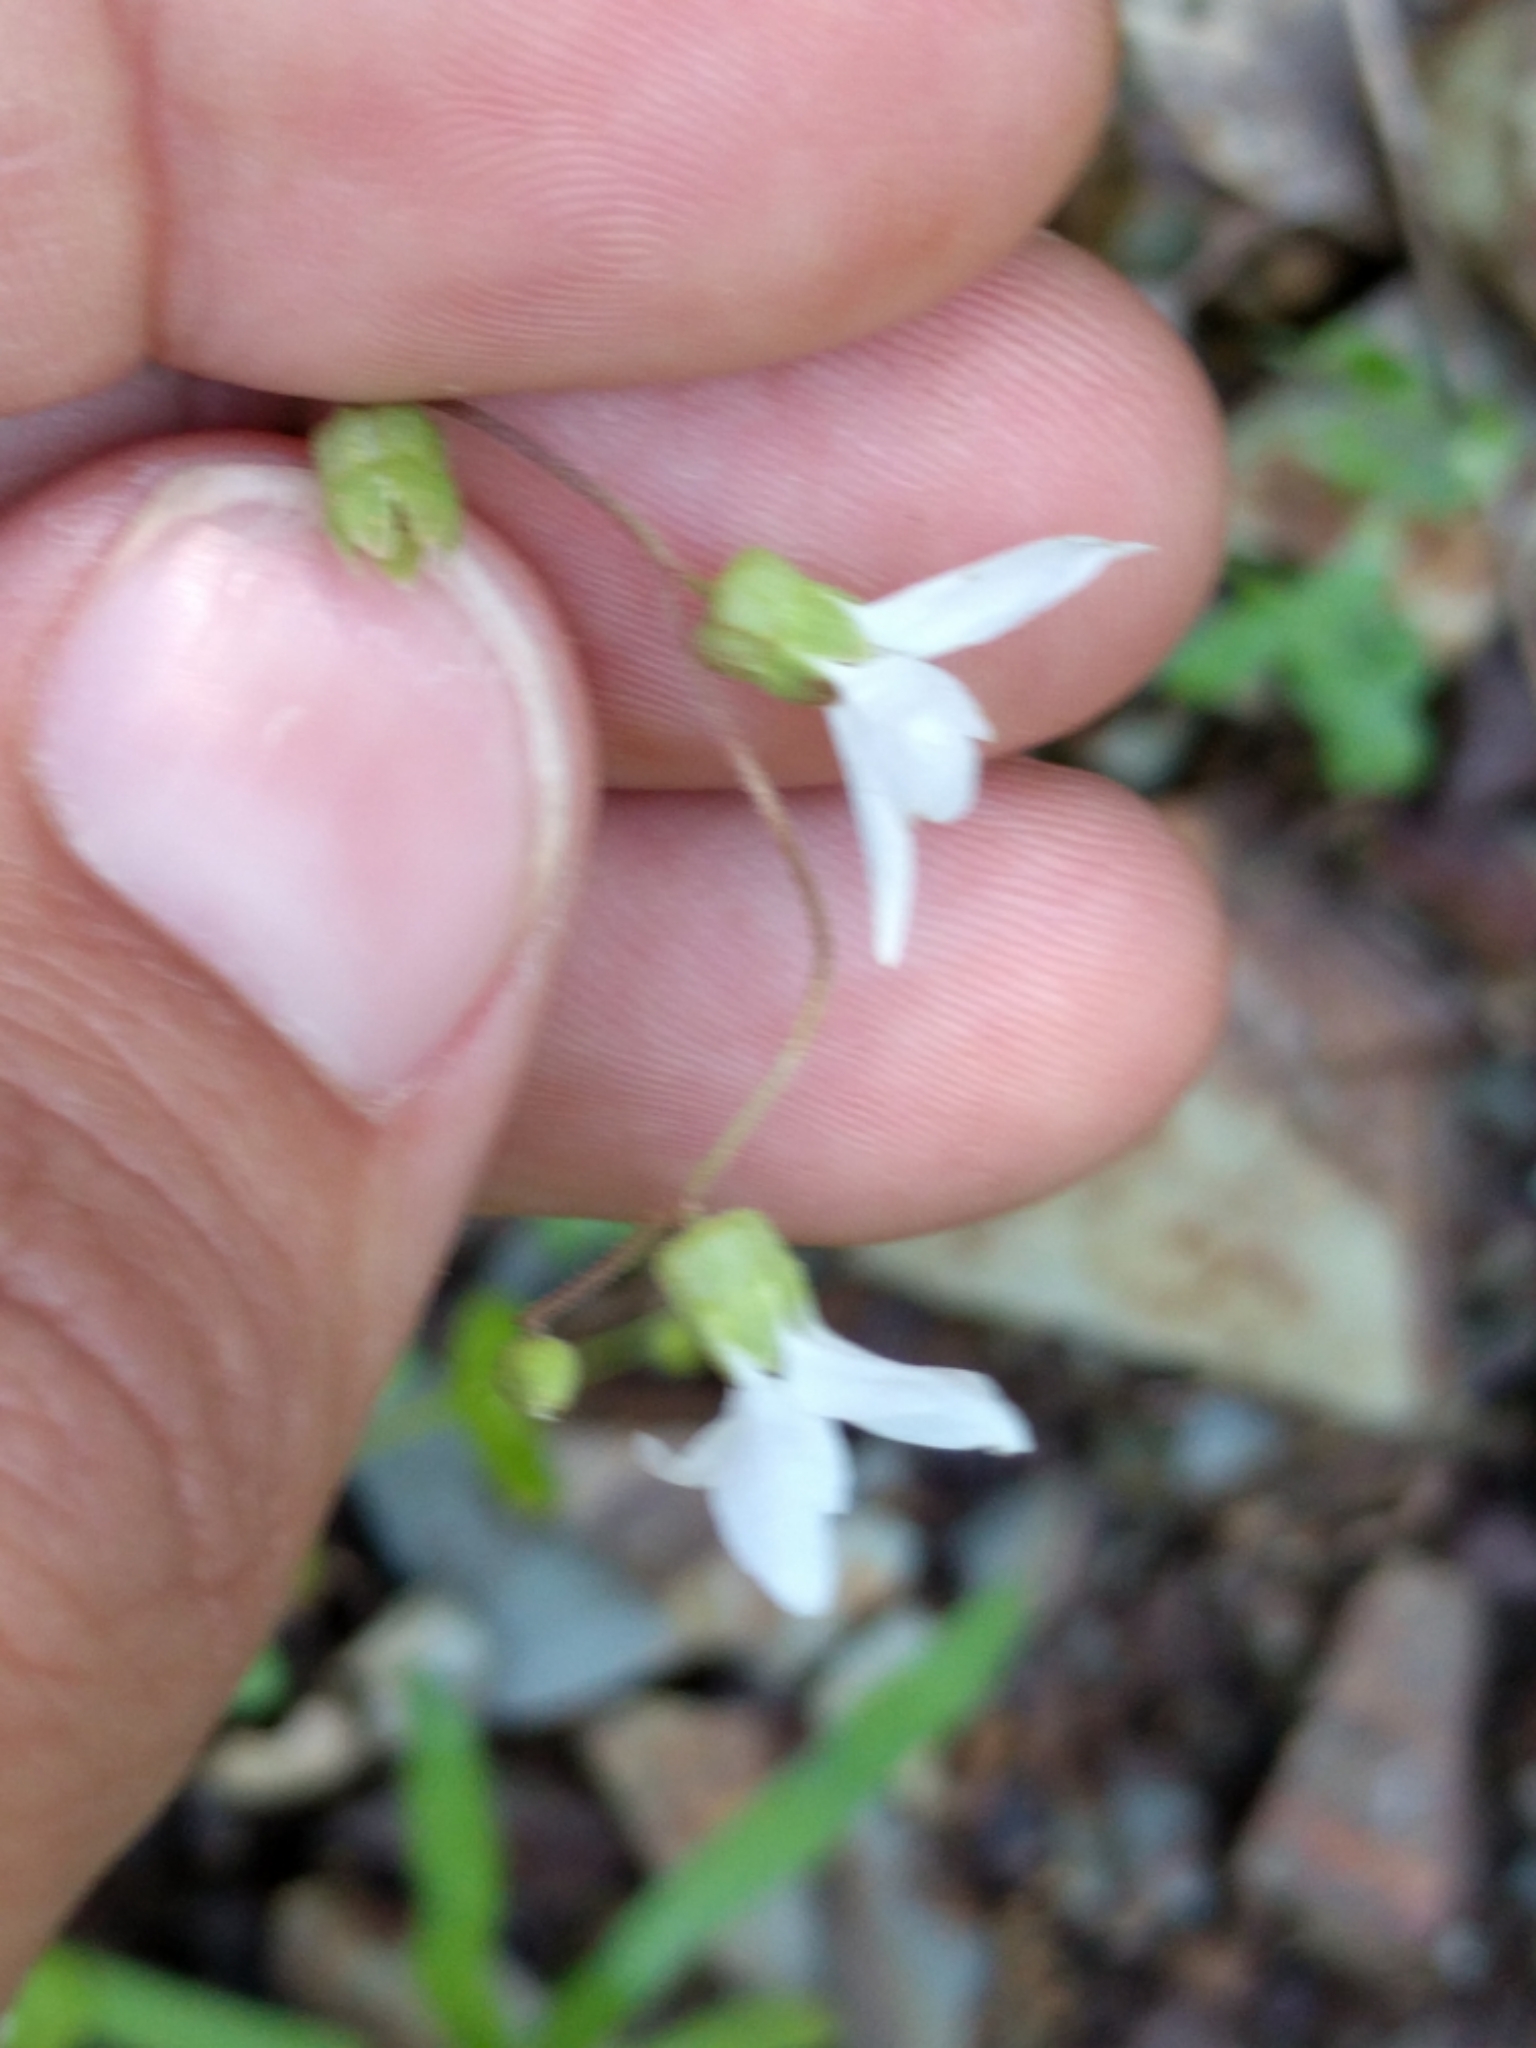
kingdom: Plantae
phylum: Tracheophyta
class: Magnoliopsida
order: Saxifragales
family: Saxifragaceae
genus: Lithophragma
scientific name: Lithophragma heterophyllum
